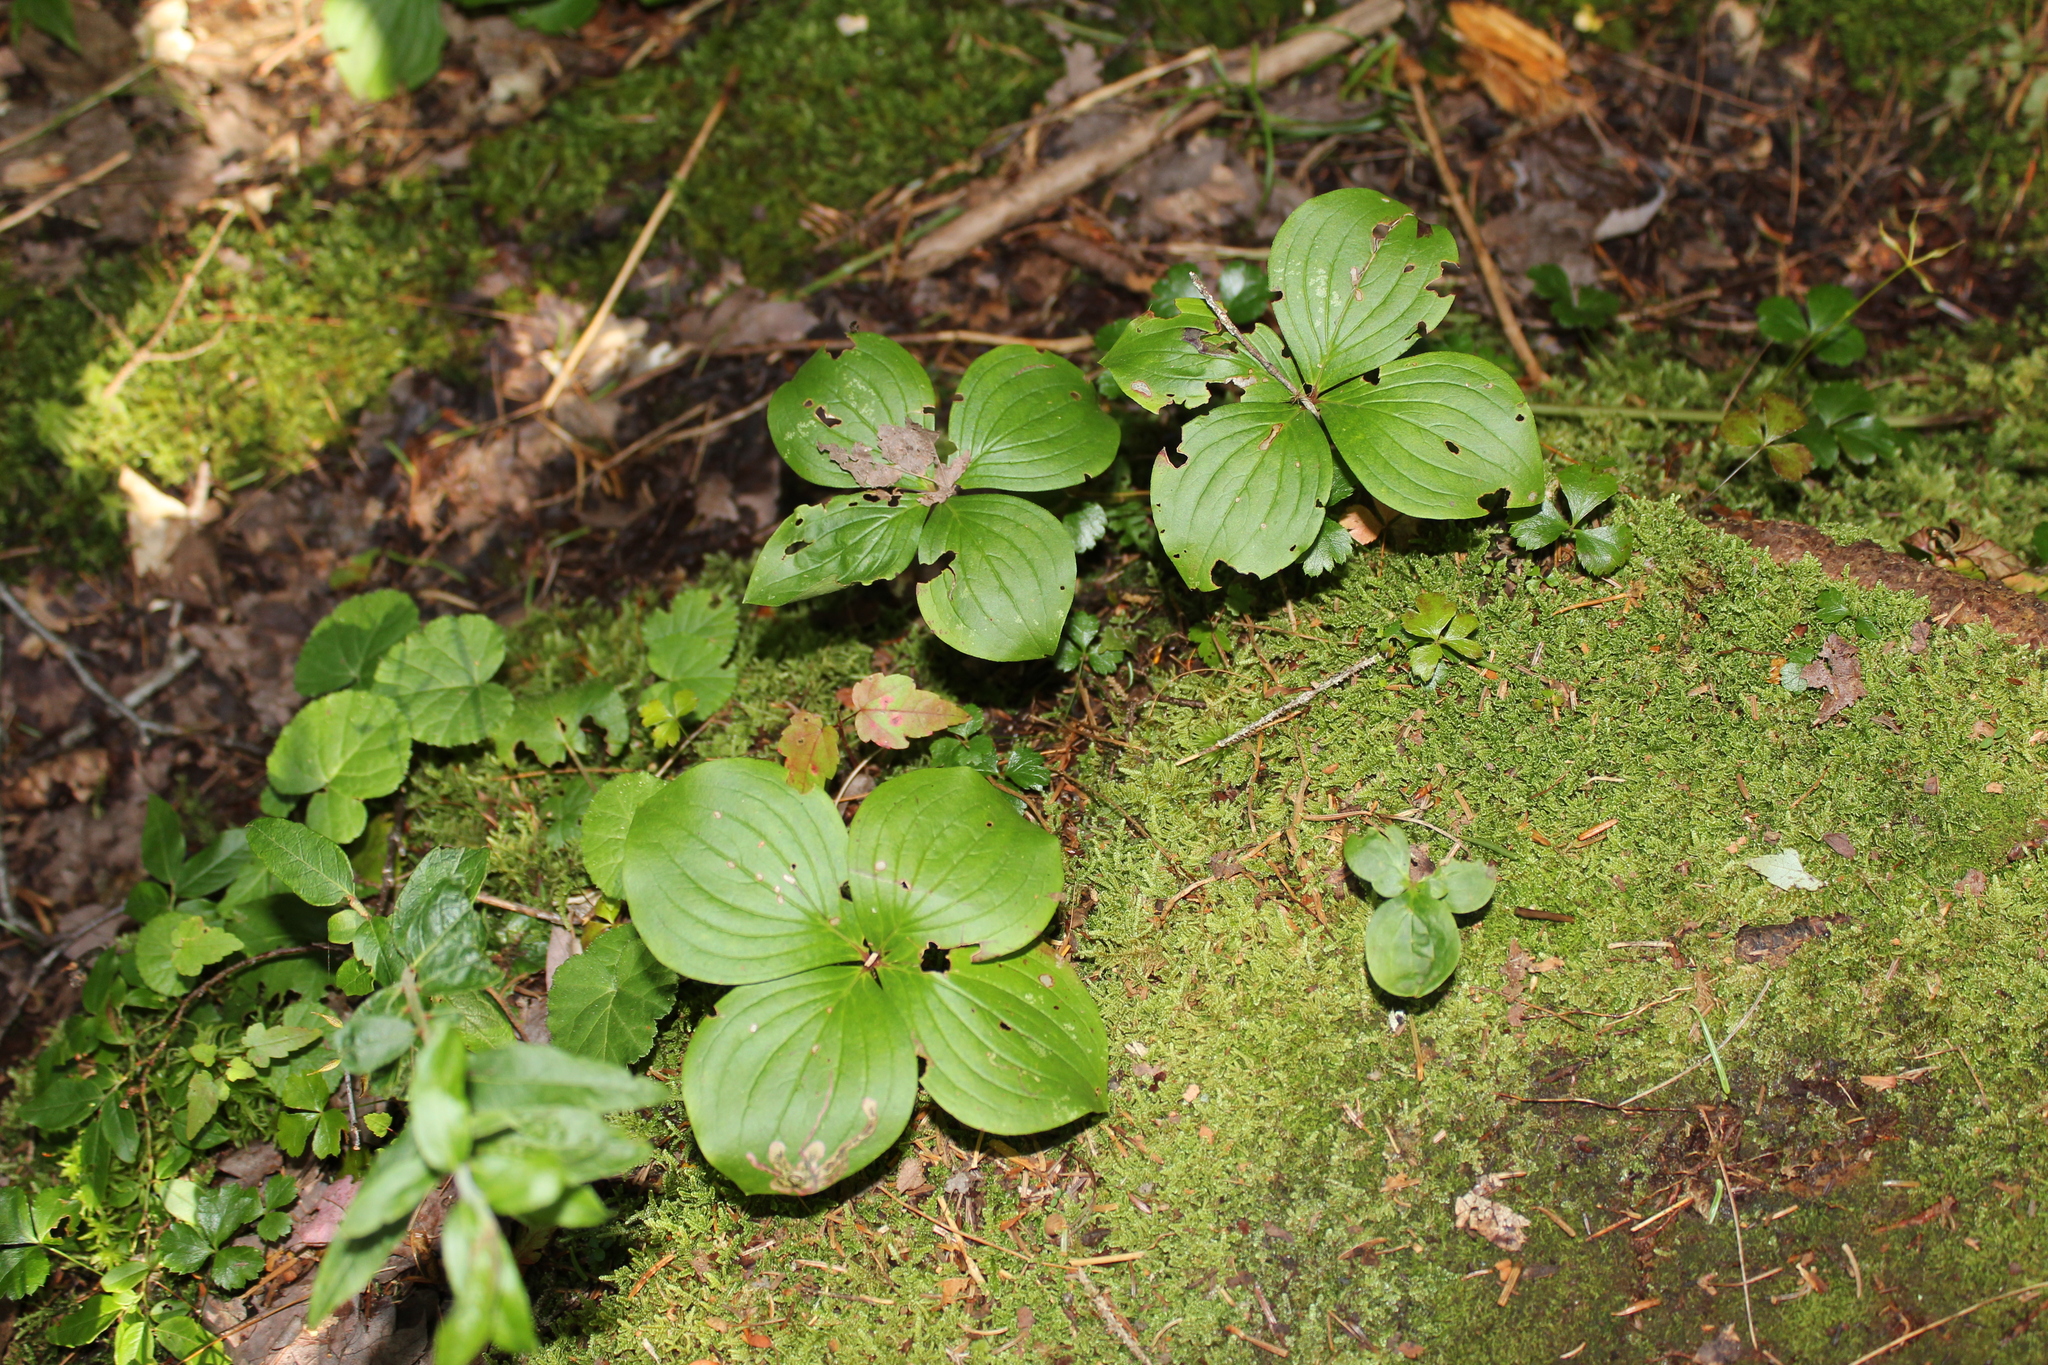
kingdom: Plantae
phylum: Tracheophyta
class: Magnoliopsida
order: Cornales
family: Cornaceae
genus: Cornus
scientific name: Cornus canadensis
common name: Creeping dogwood
